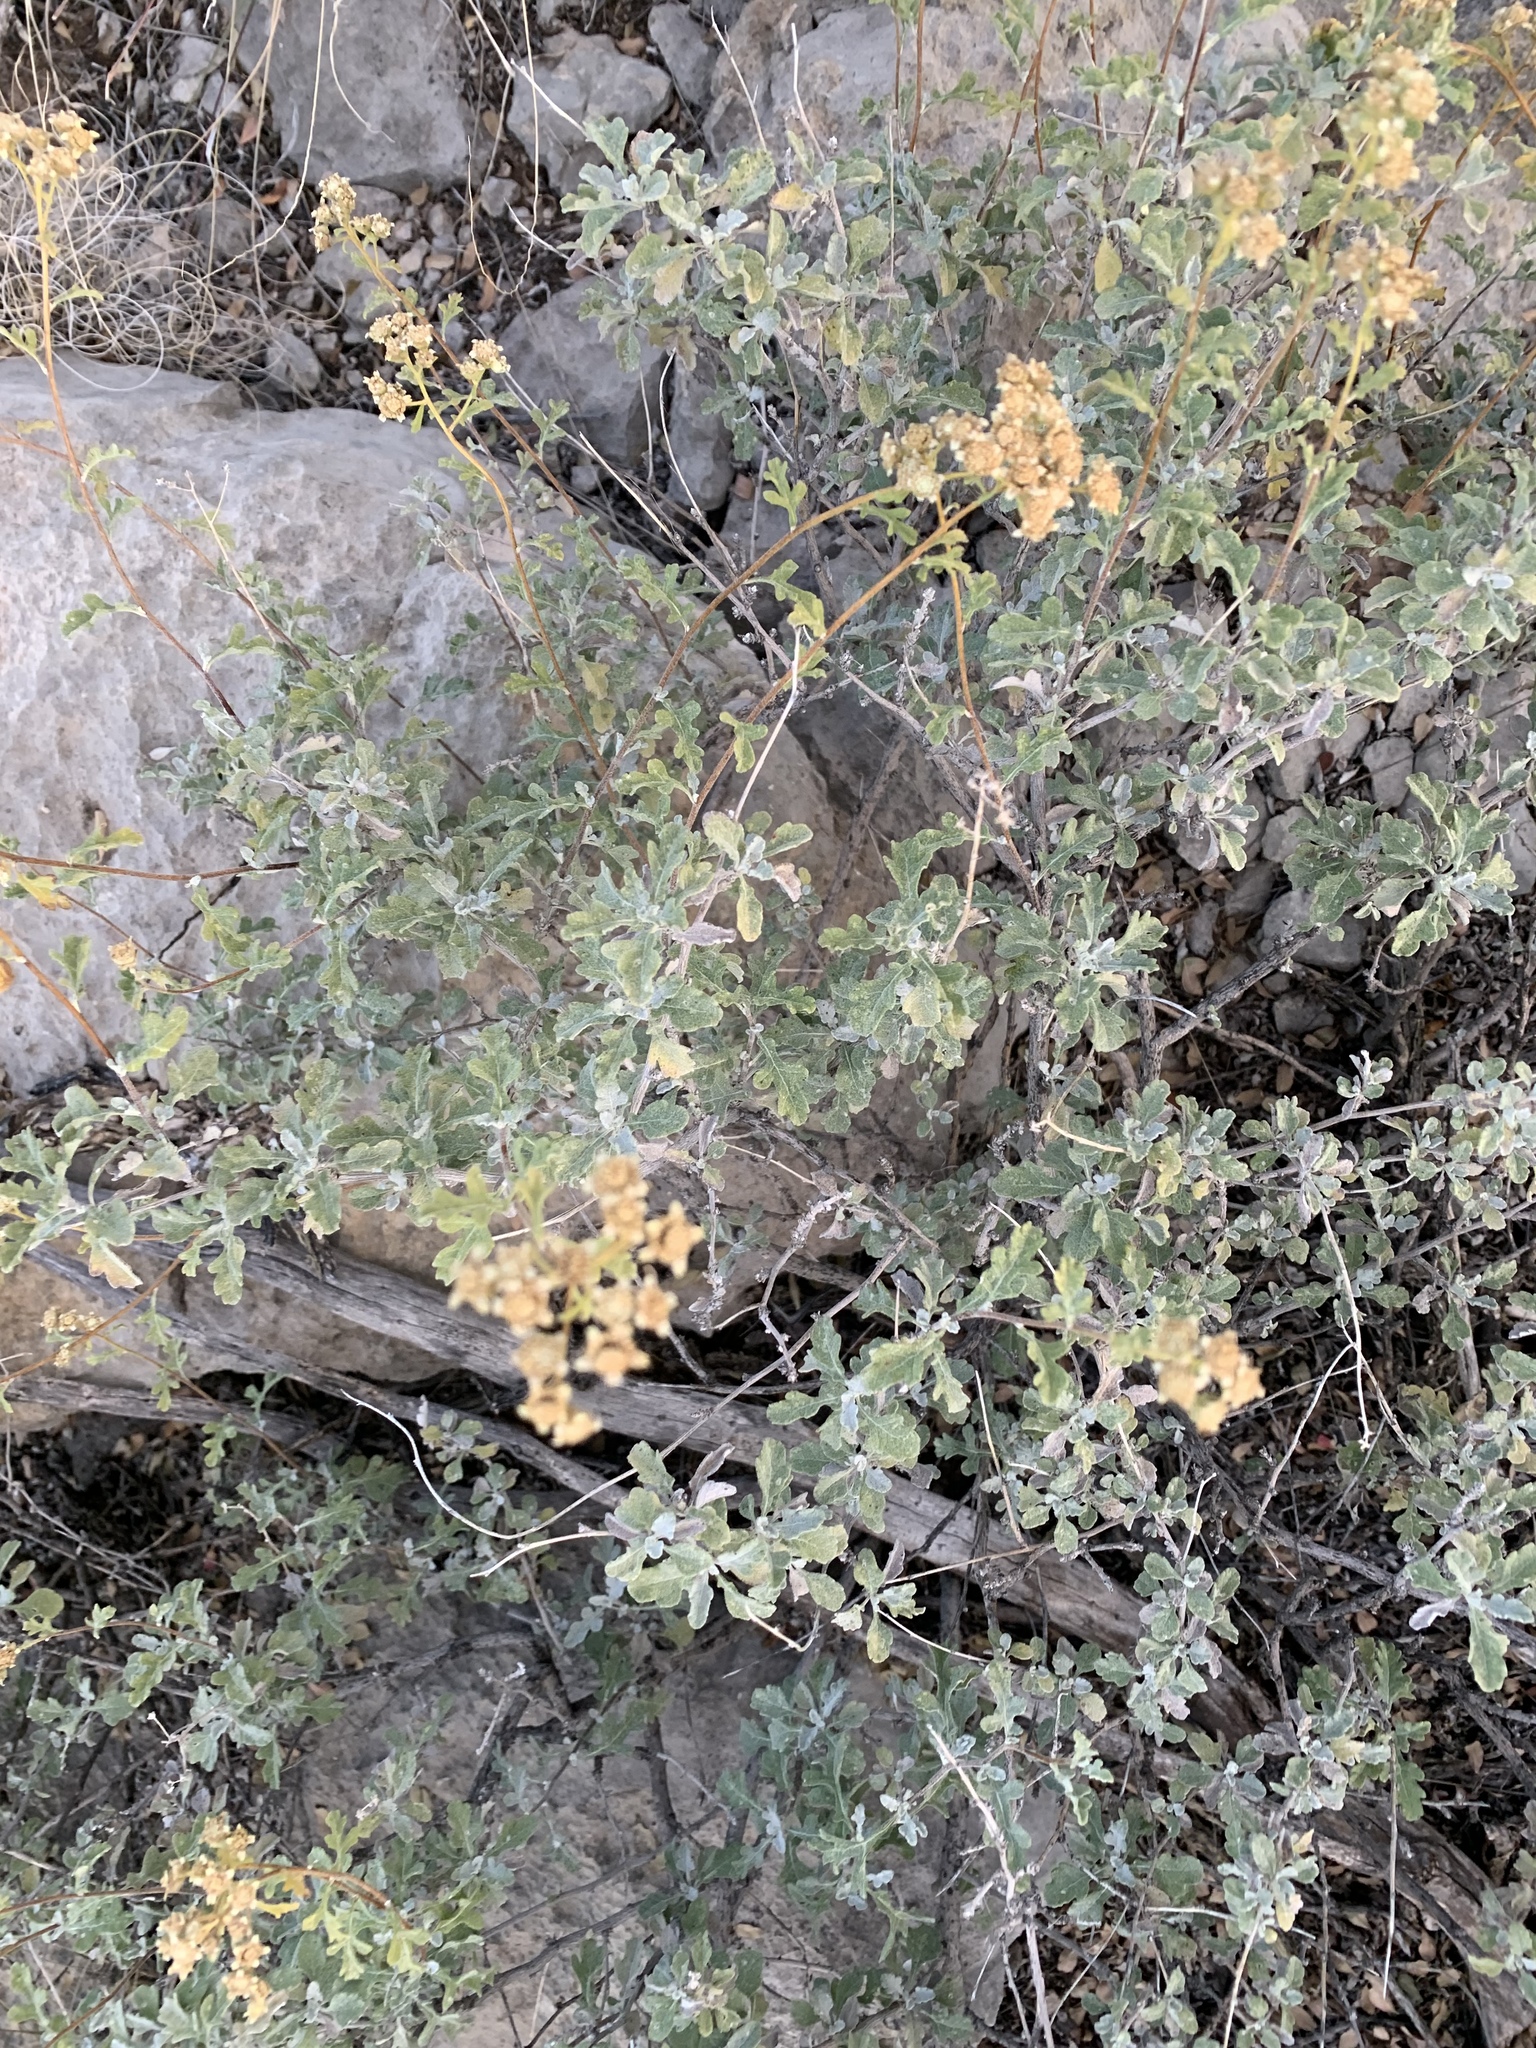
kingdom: Plantae
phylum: Tracheophyta
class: Magnoliopsida
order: Asterales
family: Asteraceae
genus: Parthenium
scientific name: Parthenium incanum
